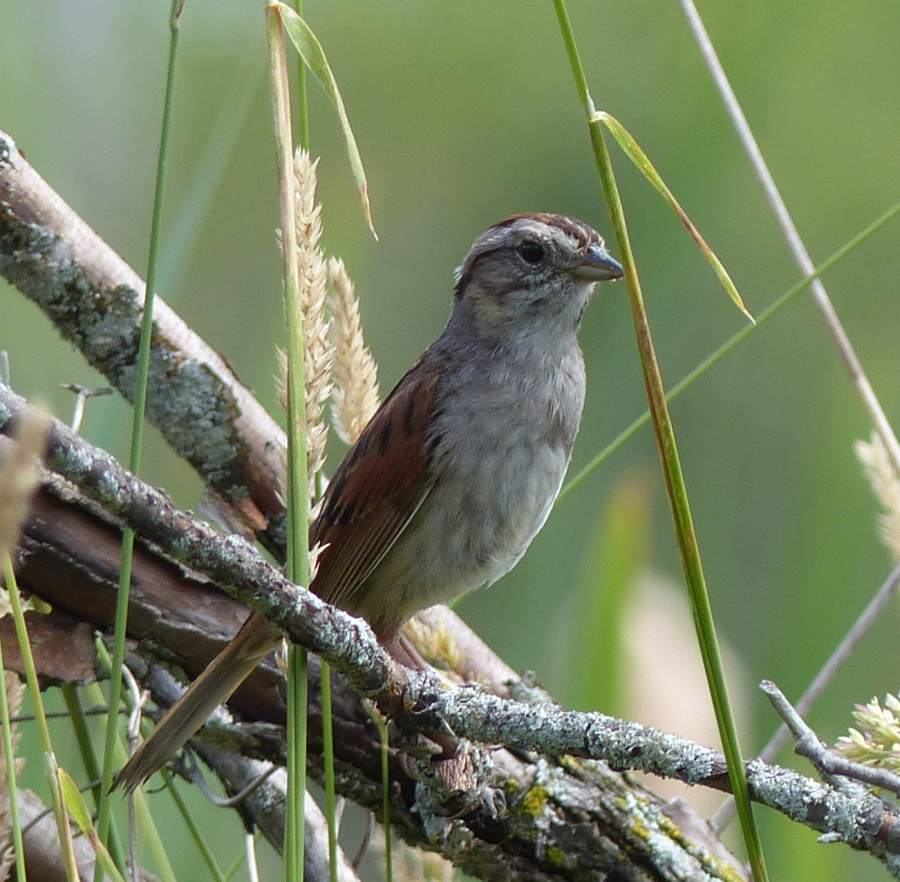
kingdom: Animalia
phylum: Chordata
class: Aves
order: Passeriformes
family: Passerellidae
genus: Melospiza
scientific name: Melospiza georgiana
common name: Swamp sparrow
